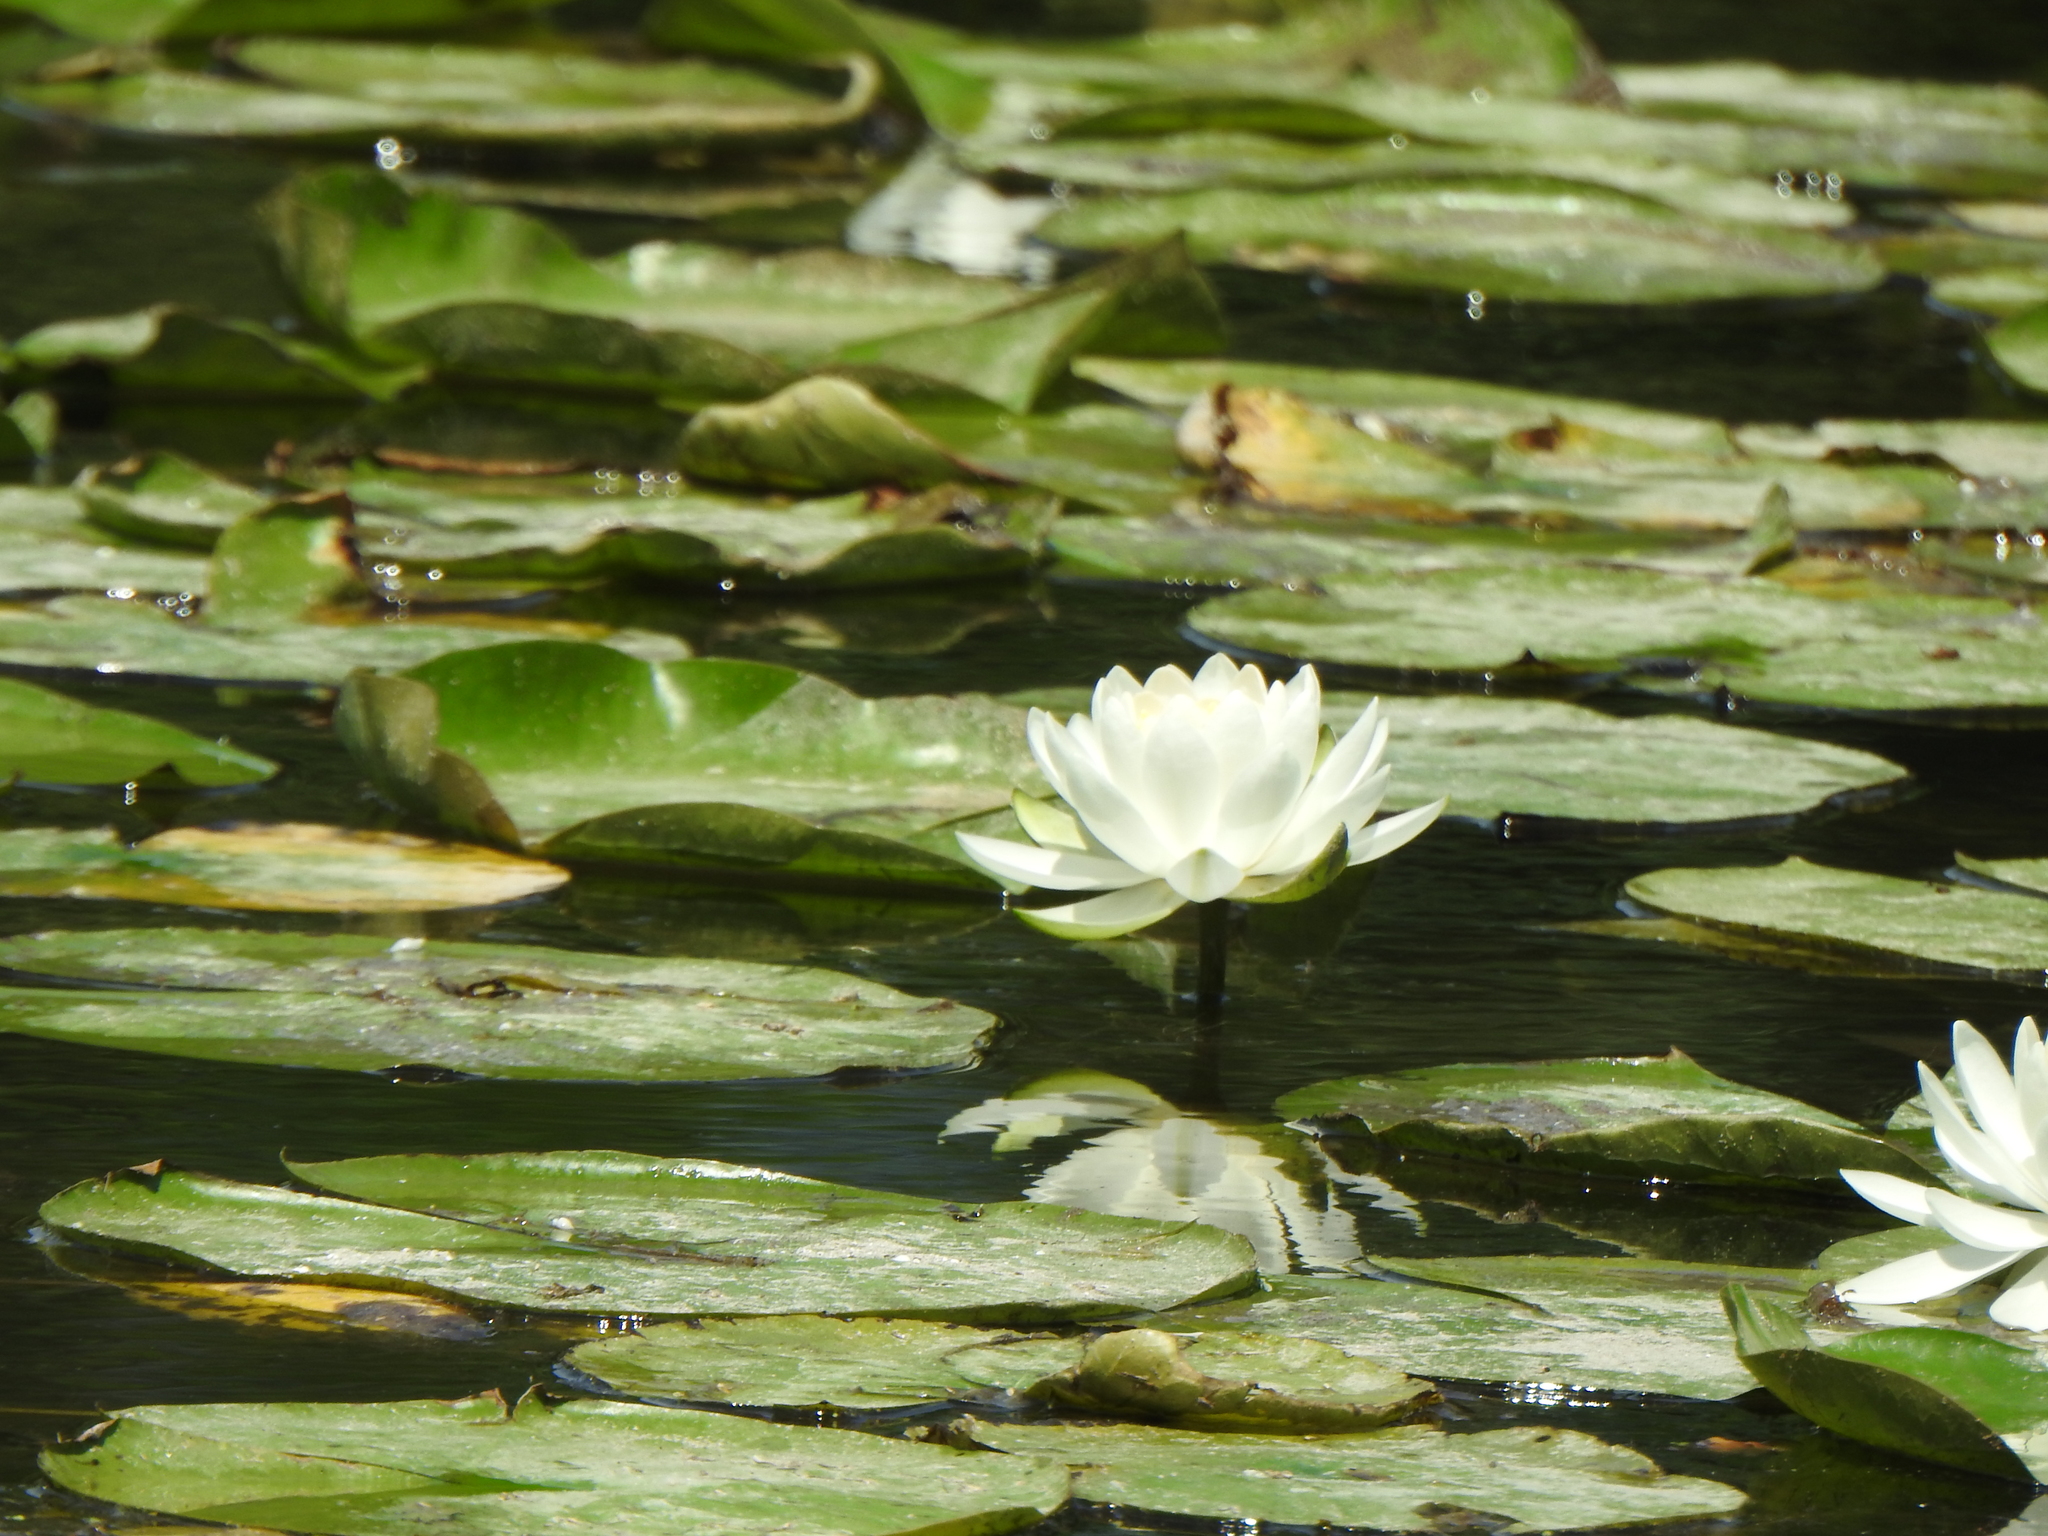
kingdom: Plantae
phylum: Tracheophyta
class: Magnoliopsida
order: Nymphaeales
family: Nymphaeaceae
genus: Nymphaea
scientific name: Nymphaea odorata
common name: Fragrant water-lily
